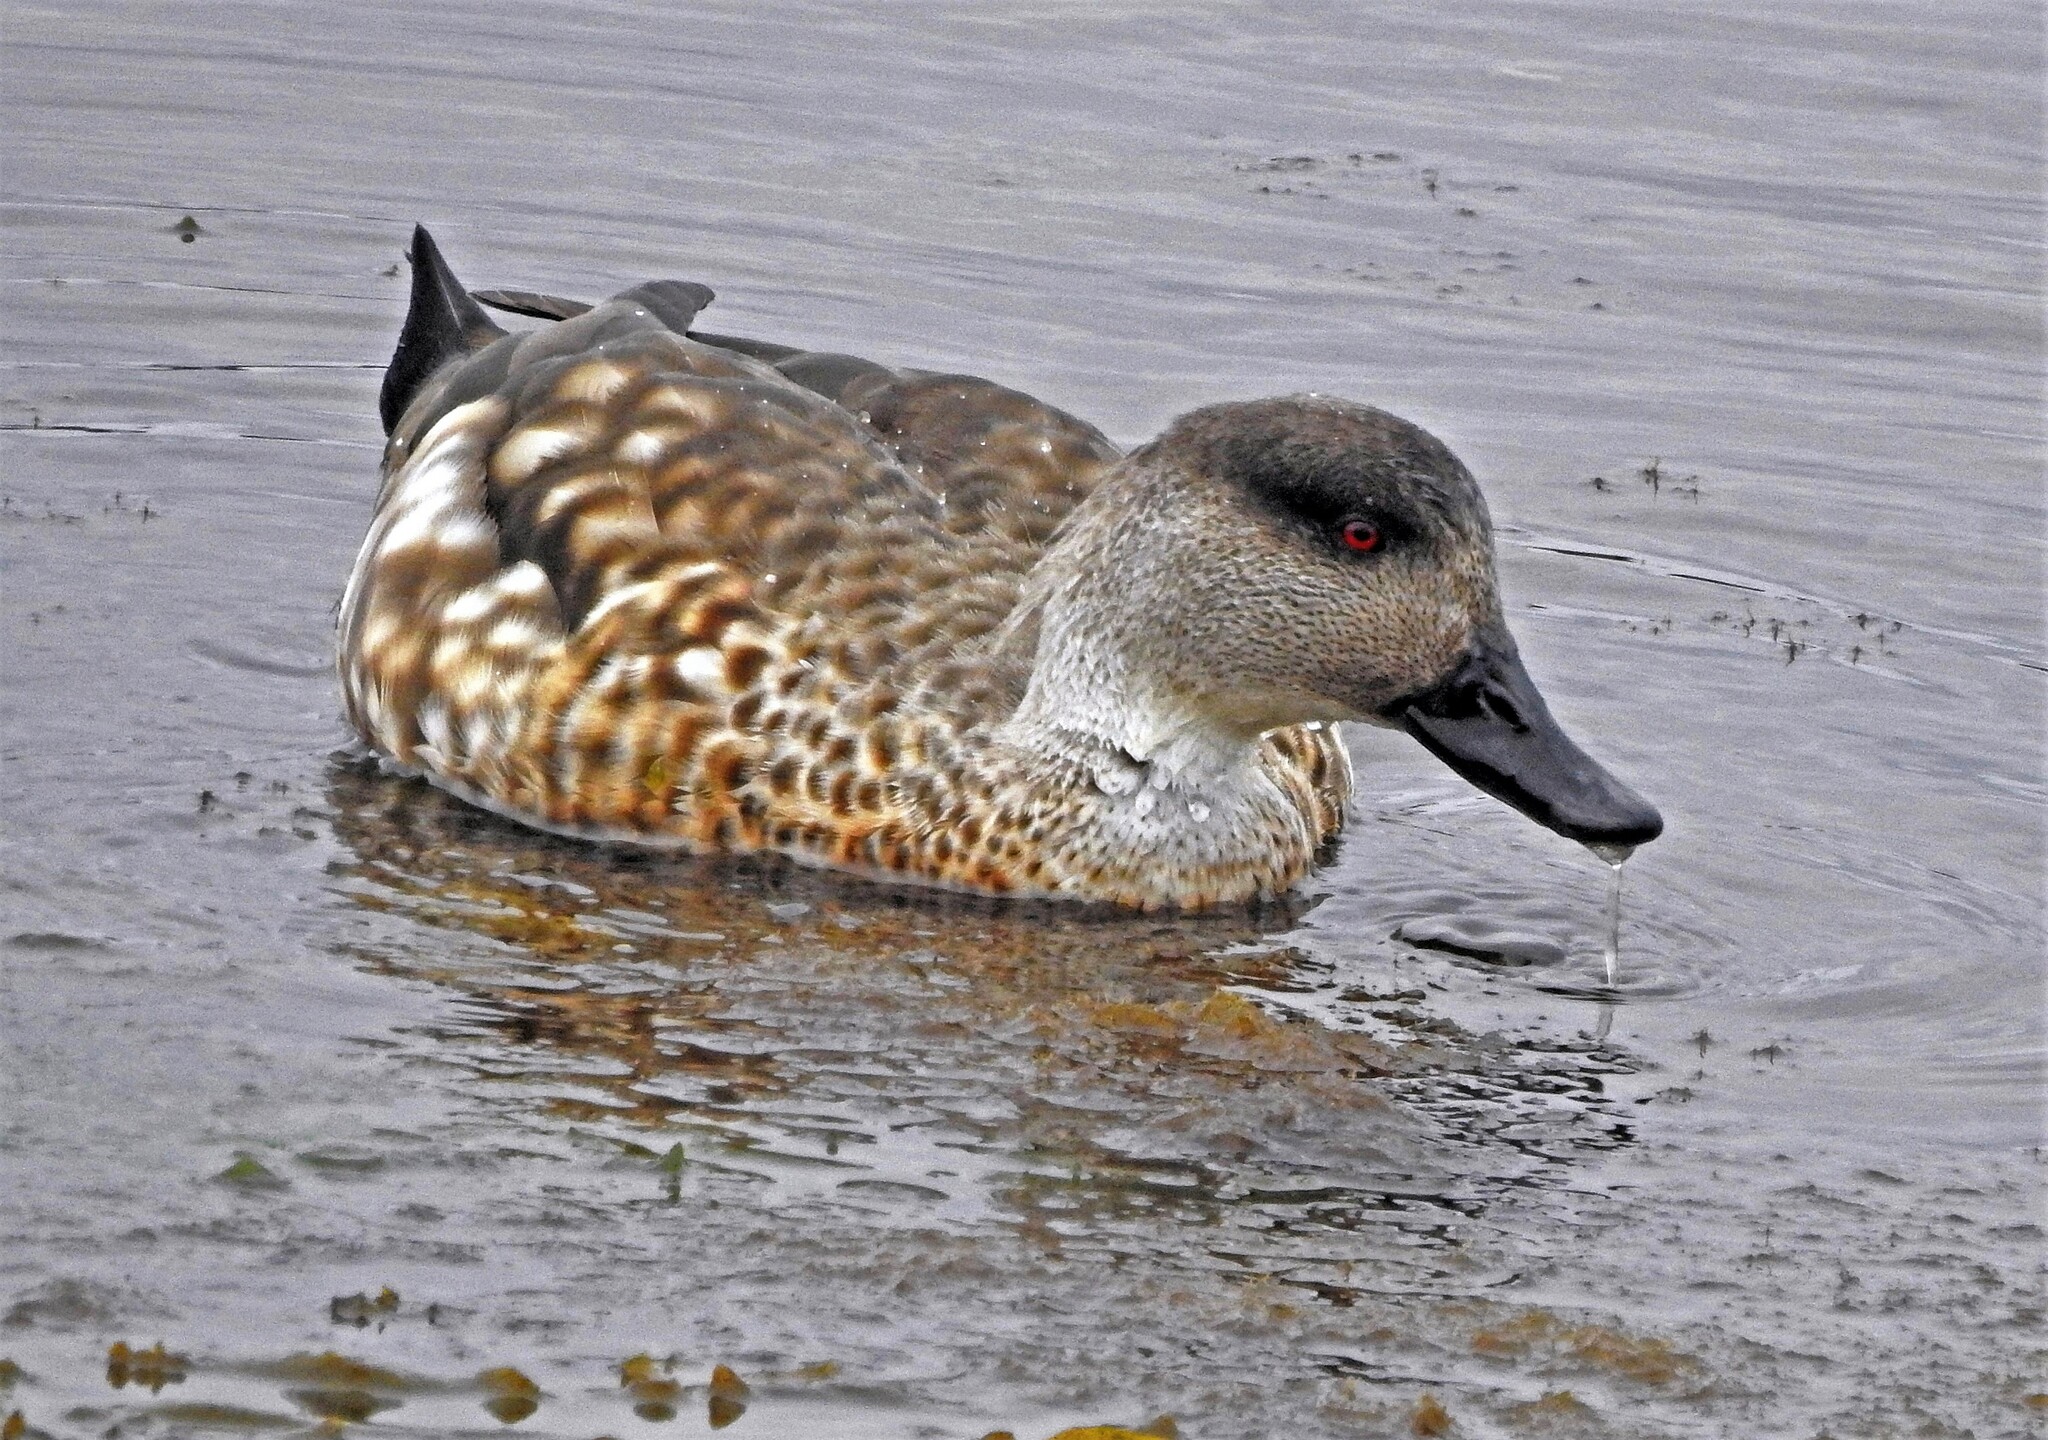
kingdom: Animalia
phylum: Chordata
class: Aves
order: Anseriformes
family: Anatidae
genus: Lophonetta
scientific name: Lophonetta specularioides
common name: Crested duck
